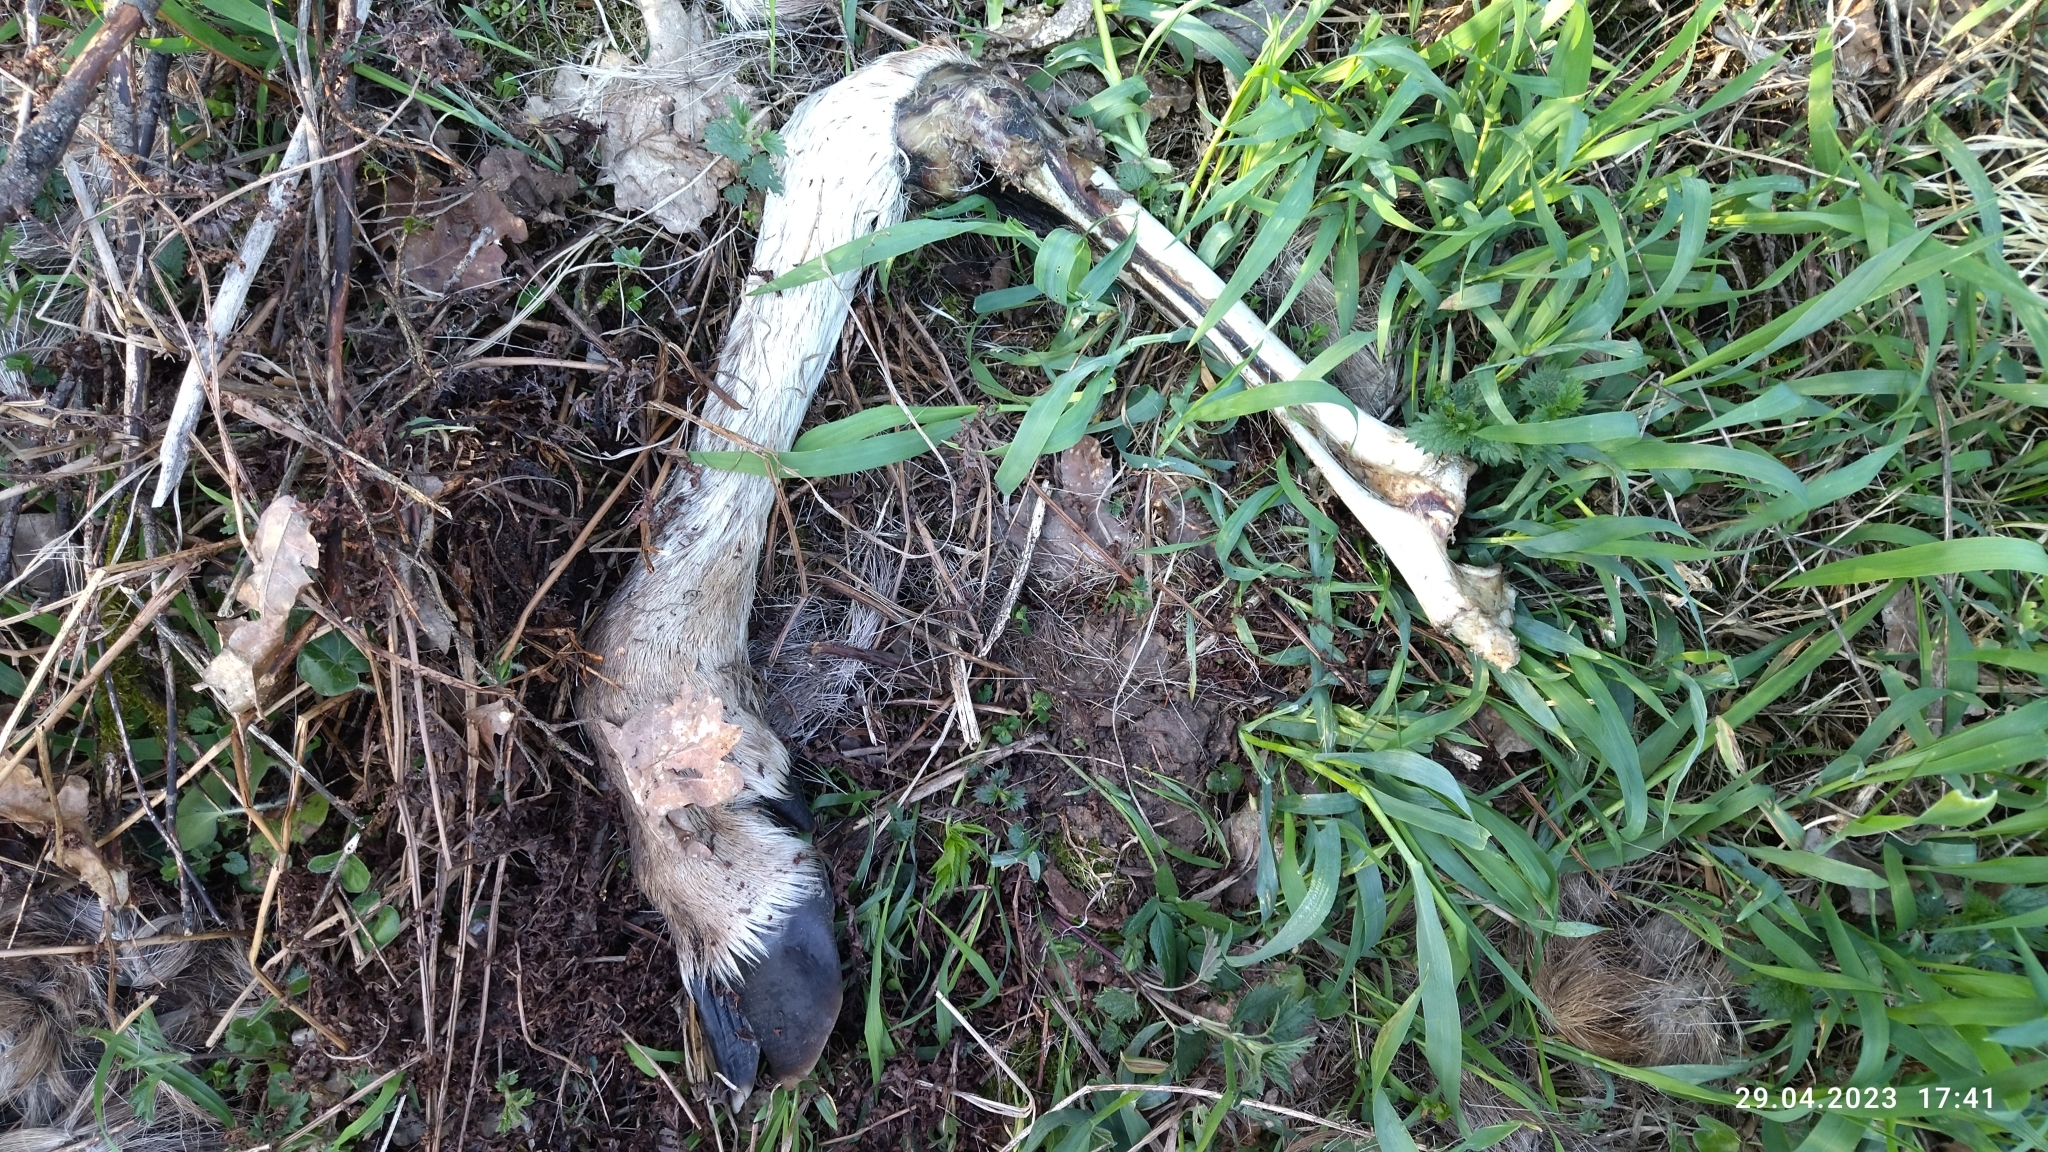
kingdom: Animalia
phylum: Chordata
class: Mammalia
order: Artiodactyla
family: Cervidae
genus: Alces
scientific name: Alces alces
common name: Moose
